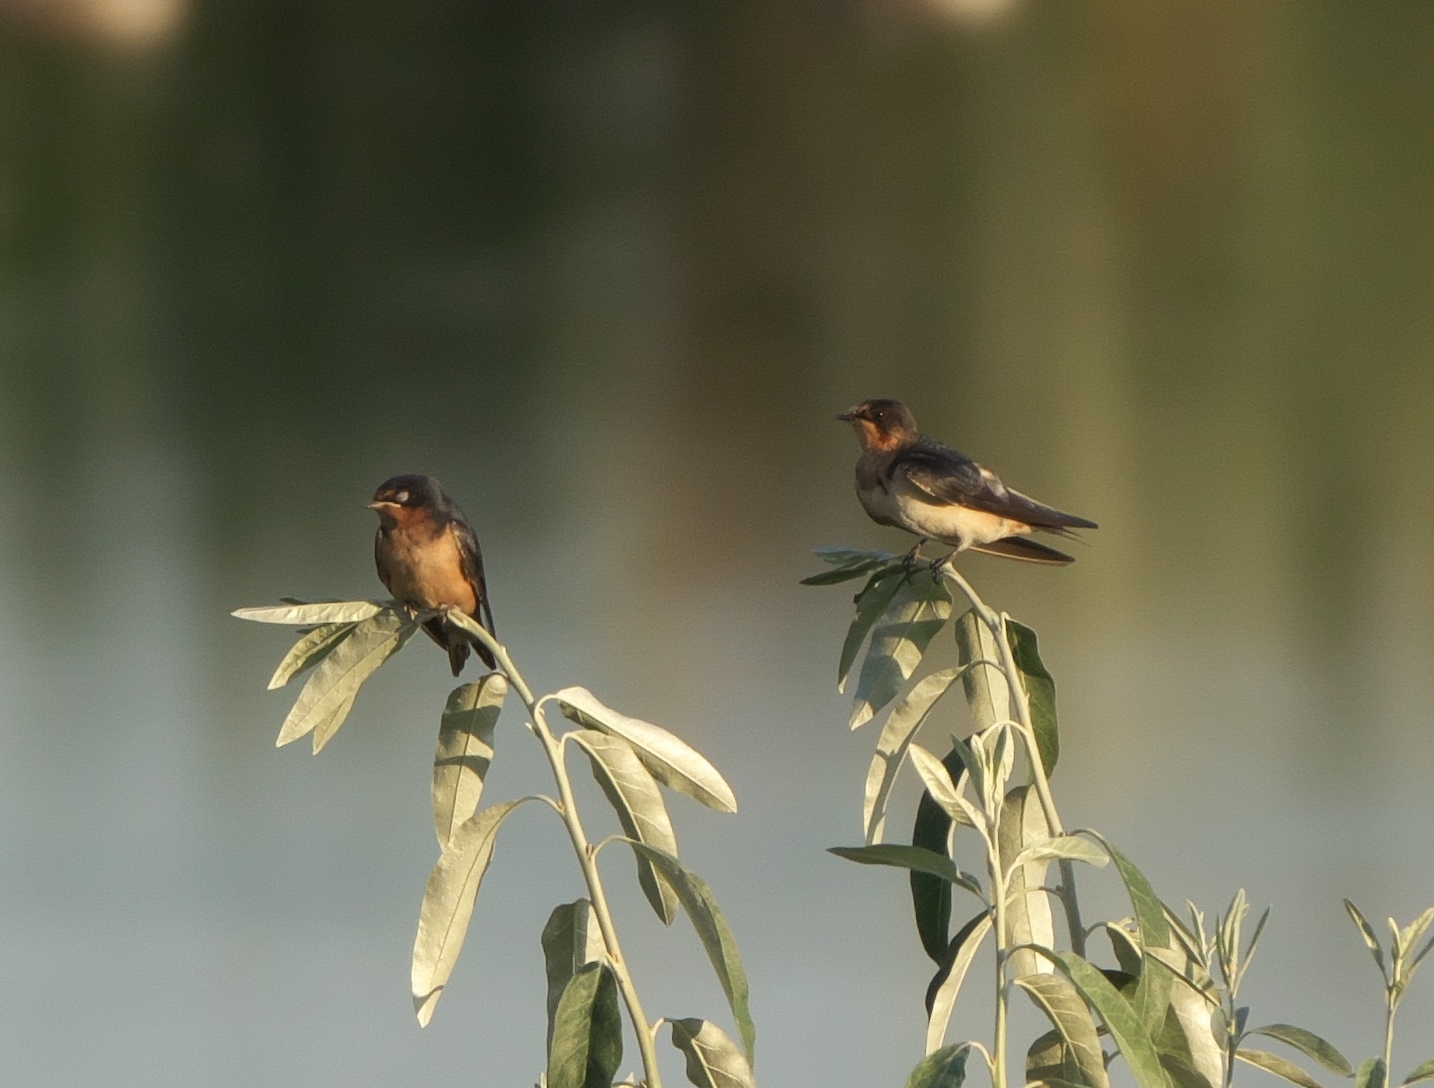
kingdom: Animalia
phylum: Chordata
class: Aves
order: Passeriformes
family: Hirundinidae
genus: Hirundo
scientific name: Hirundo rustica
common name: Barn swallow
